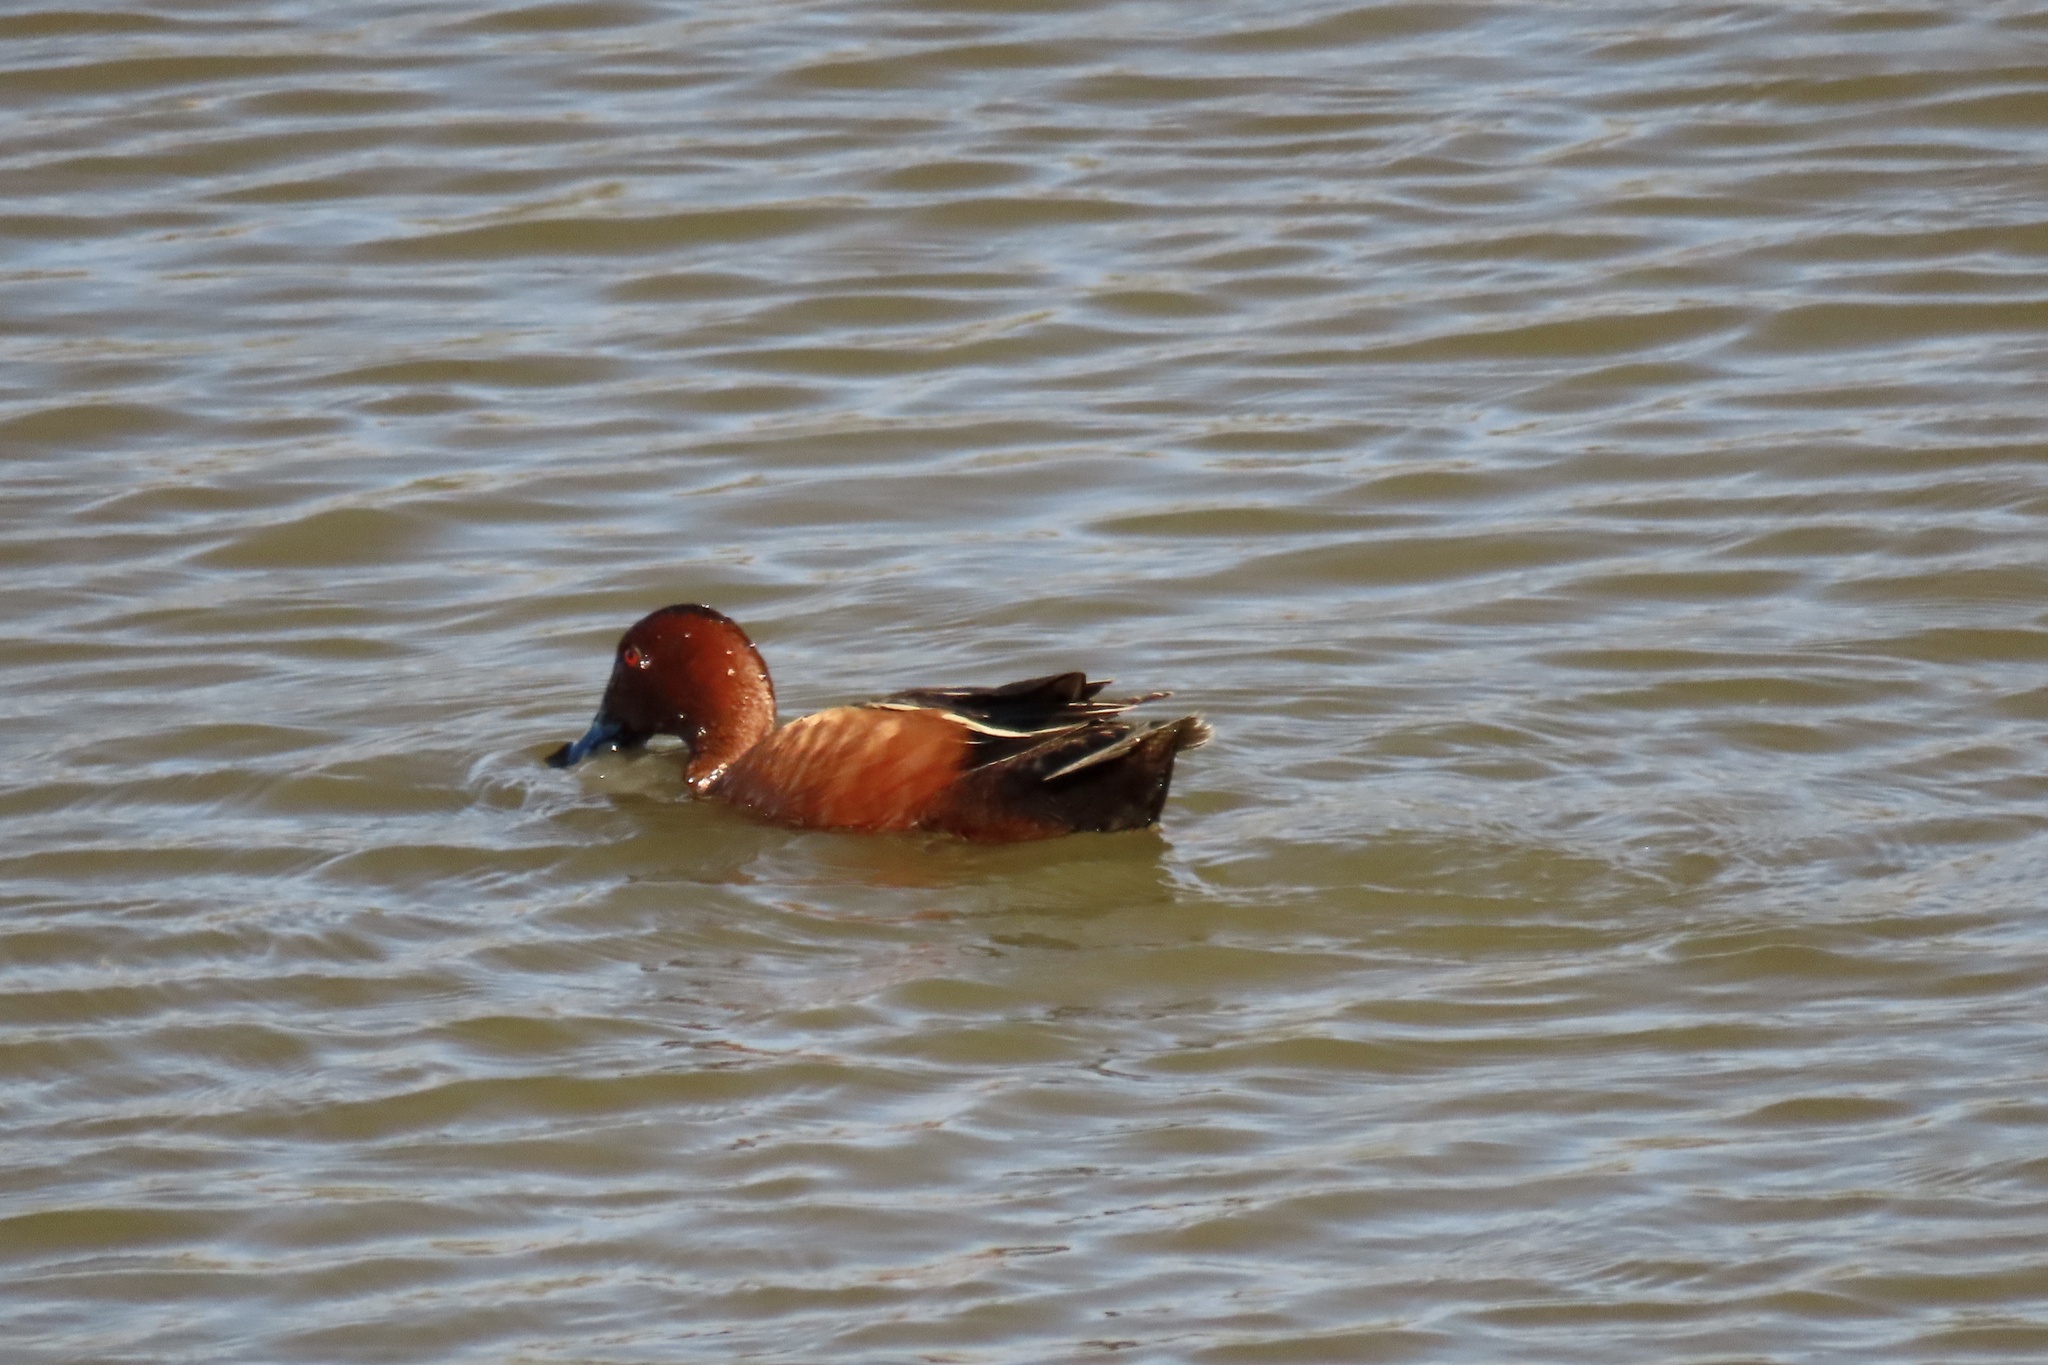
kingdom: Animalia
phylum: Chordata
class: Aves
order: Anseriformes
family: Anatidae
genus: Spatula
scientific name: Spatula cyanoptera
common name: Cinnamon teal
